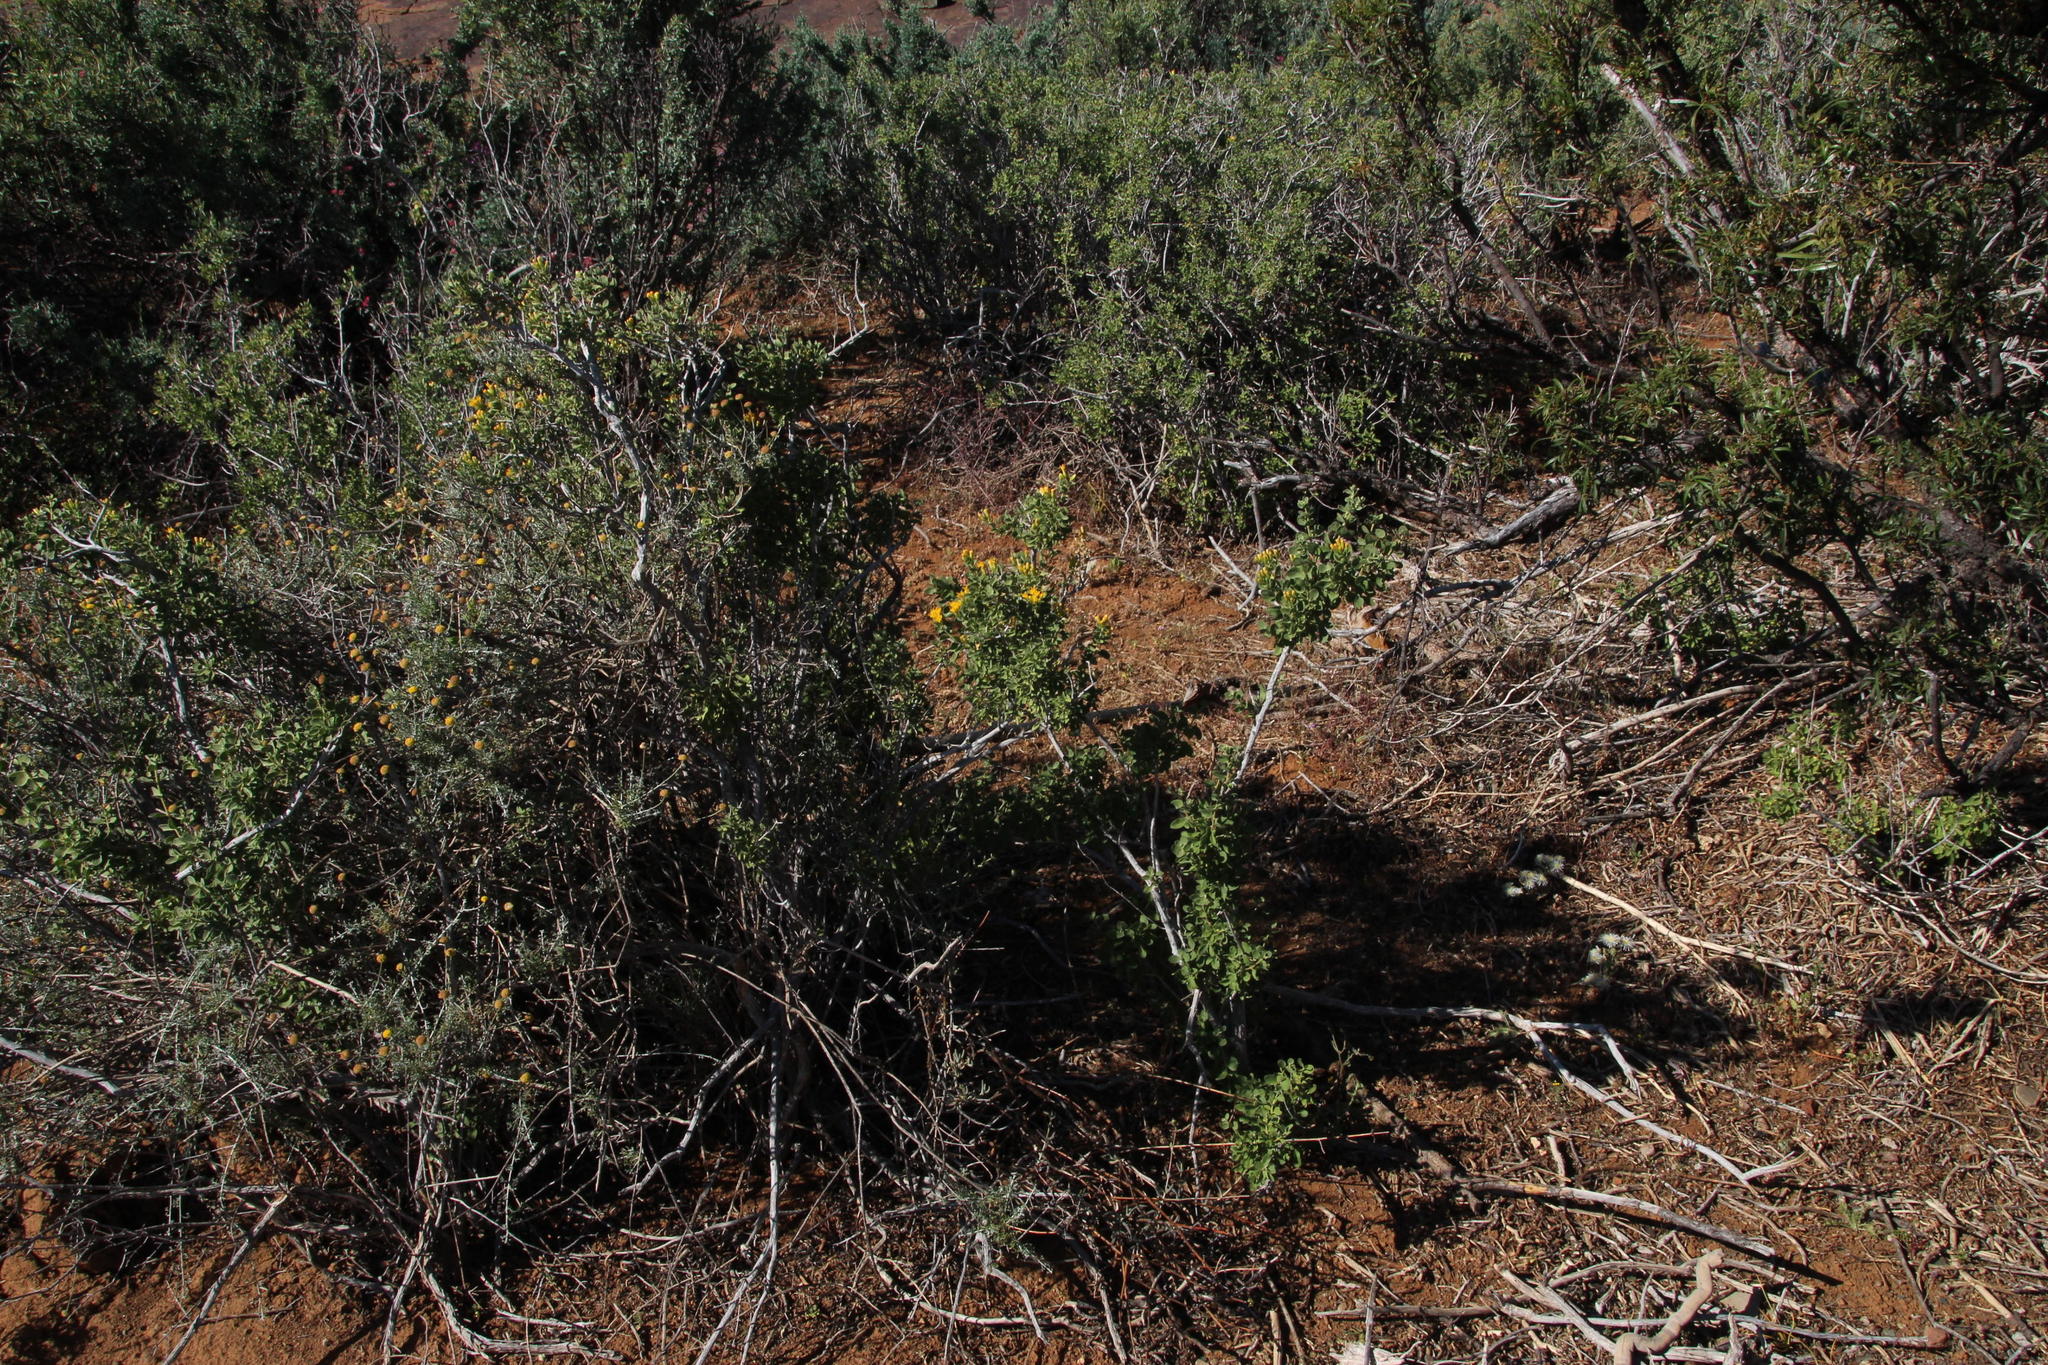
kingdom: Plantae
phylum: Tracheophyta
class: Magnoliopsida
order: Asterales
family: Asteraceae
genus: Pteronia
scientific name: Pteronia divaricata
